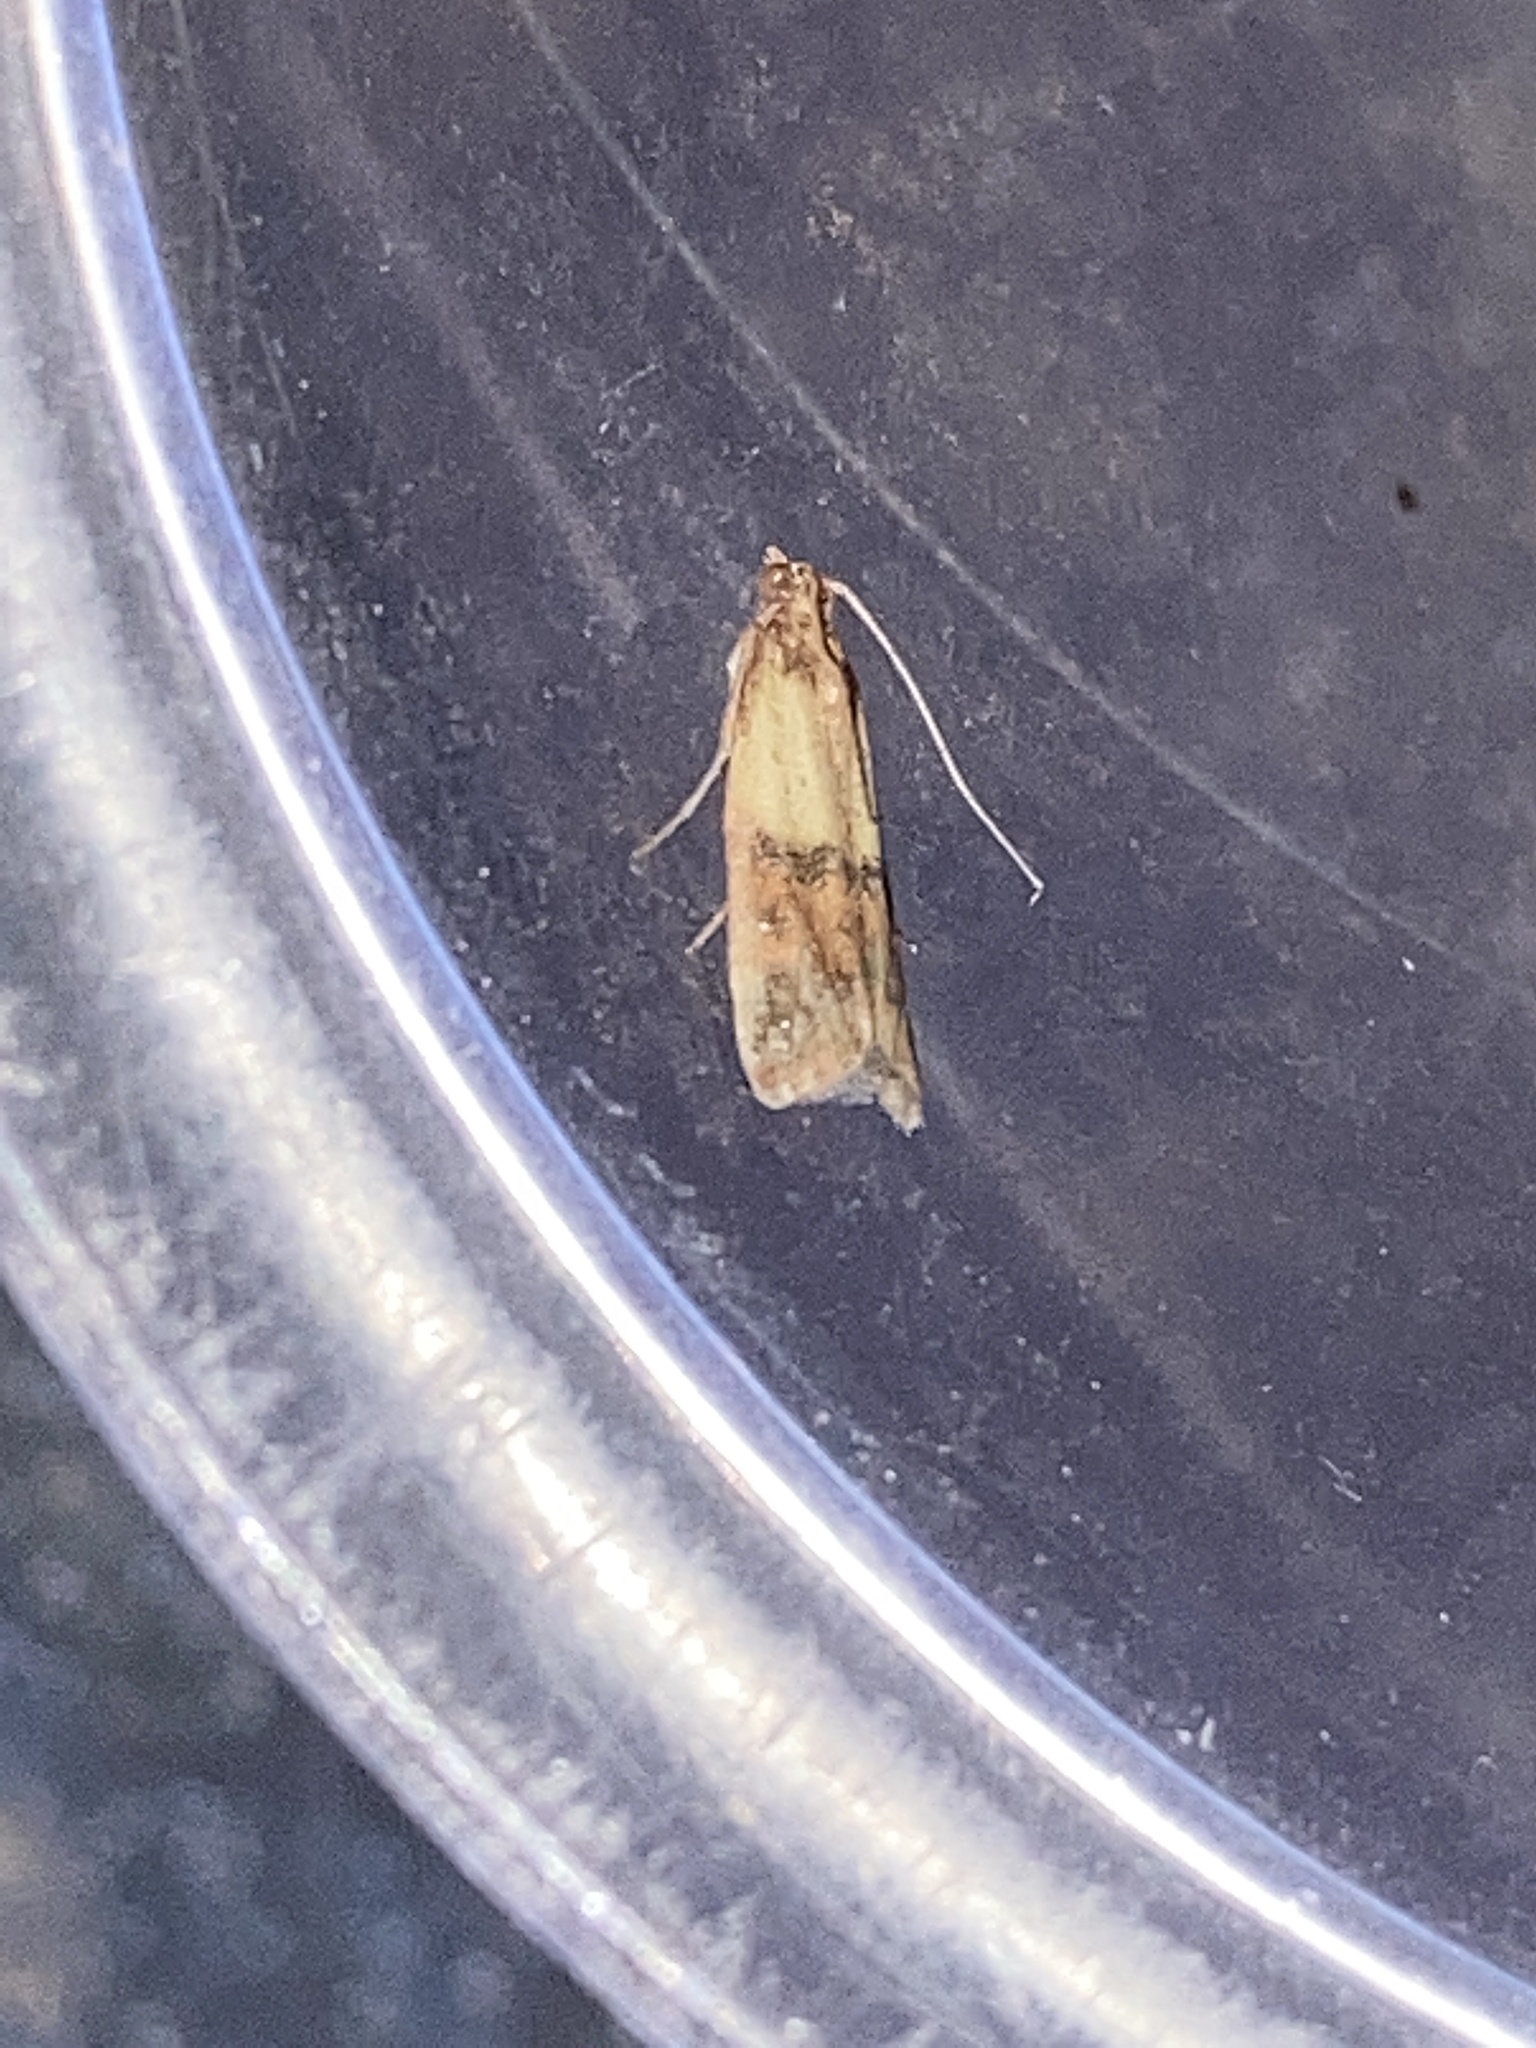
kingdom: Animalia
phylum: Arthropoda
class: Insecta
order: Lepidoptera
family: Pyralidae
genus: Plodia
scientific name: Plodia interpunctella
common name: Indian meal moth
